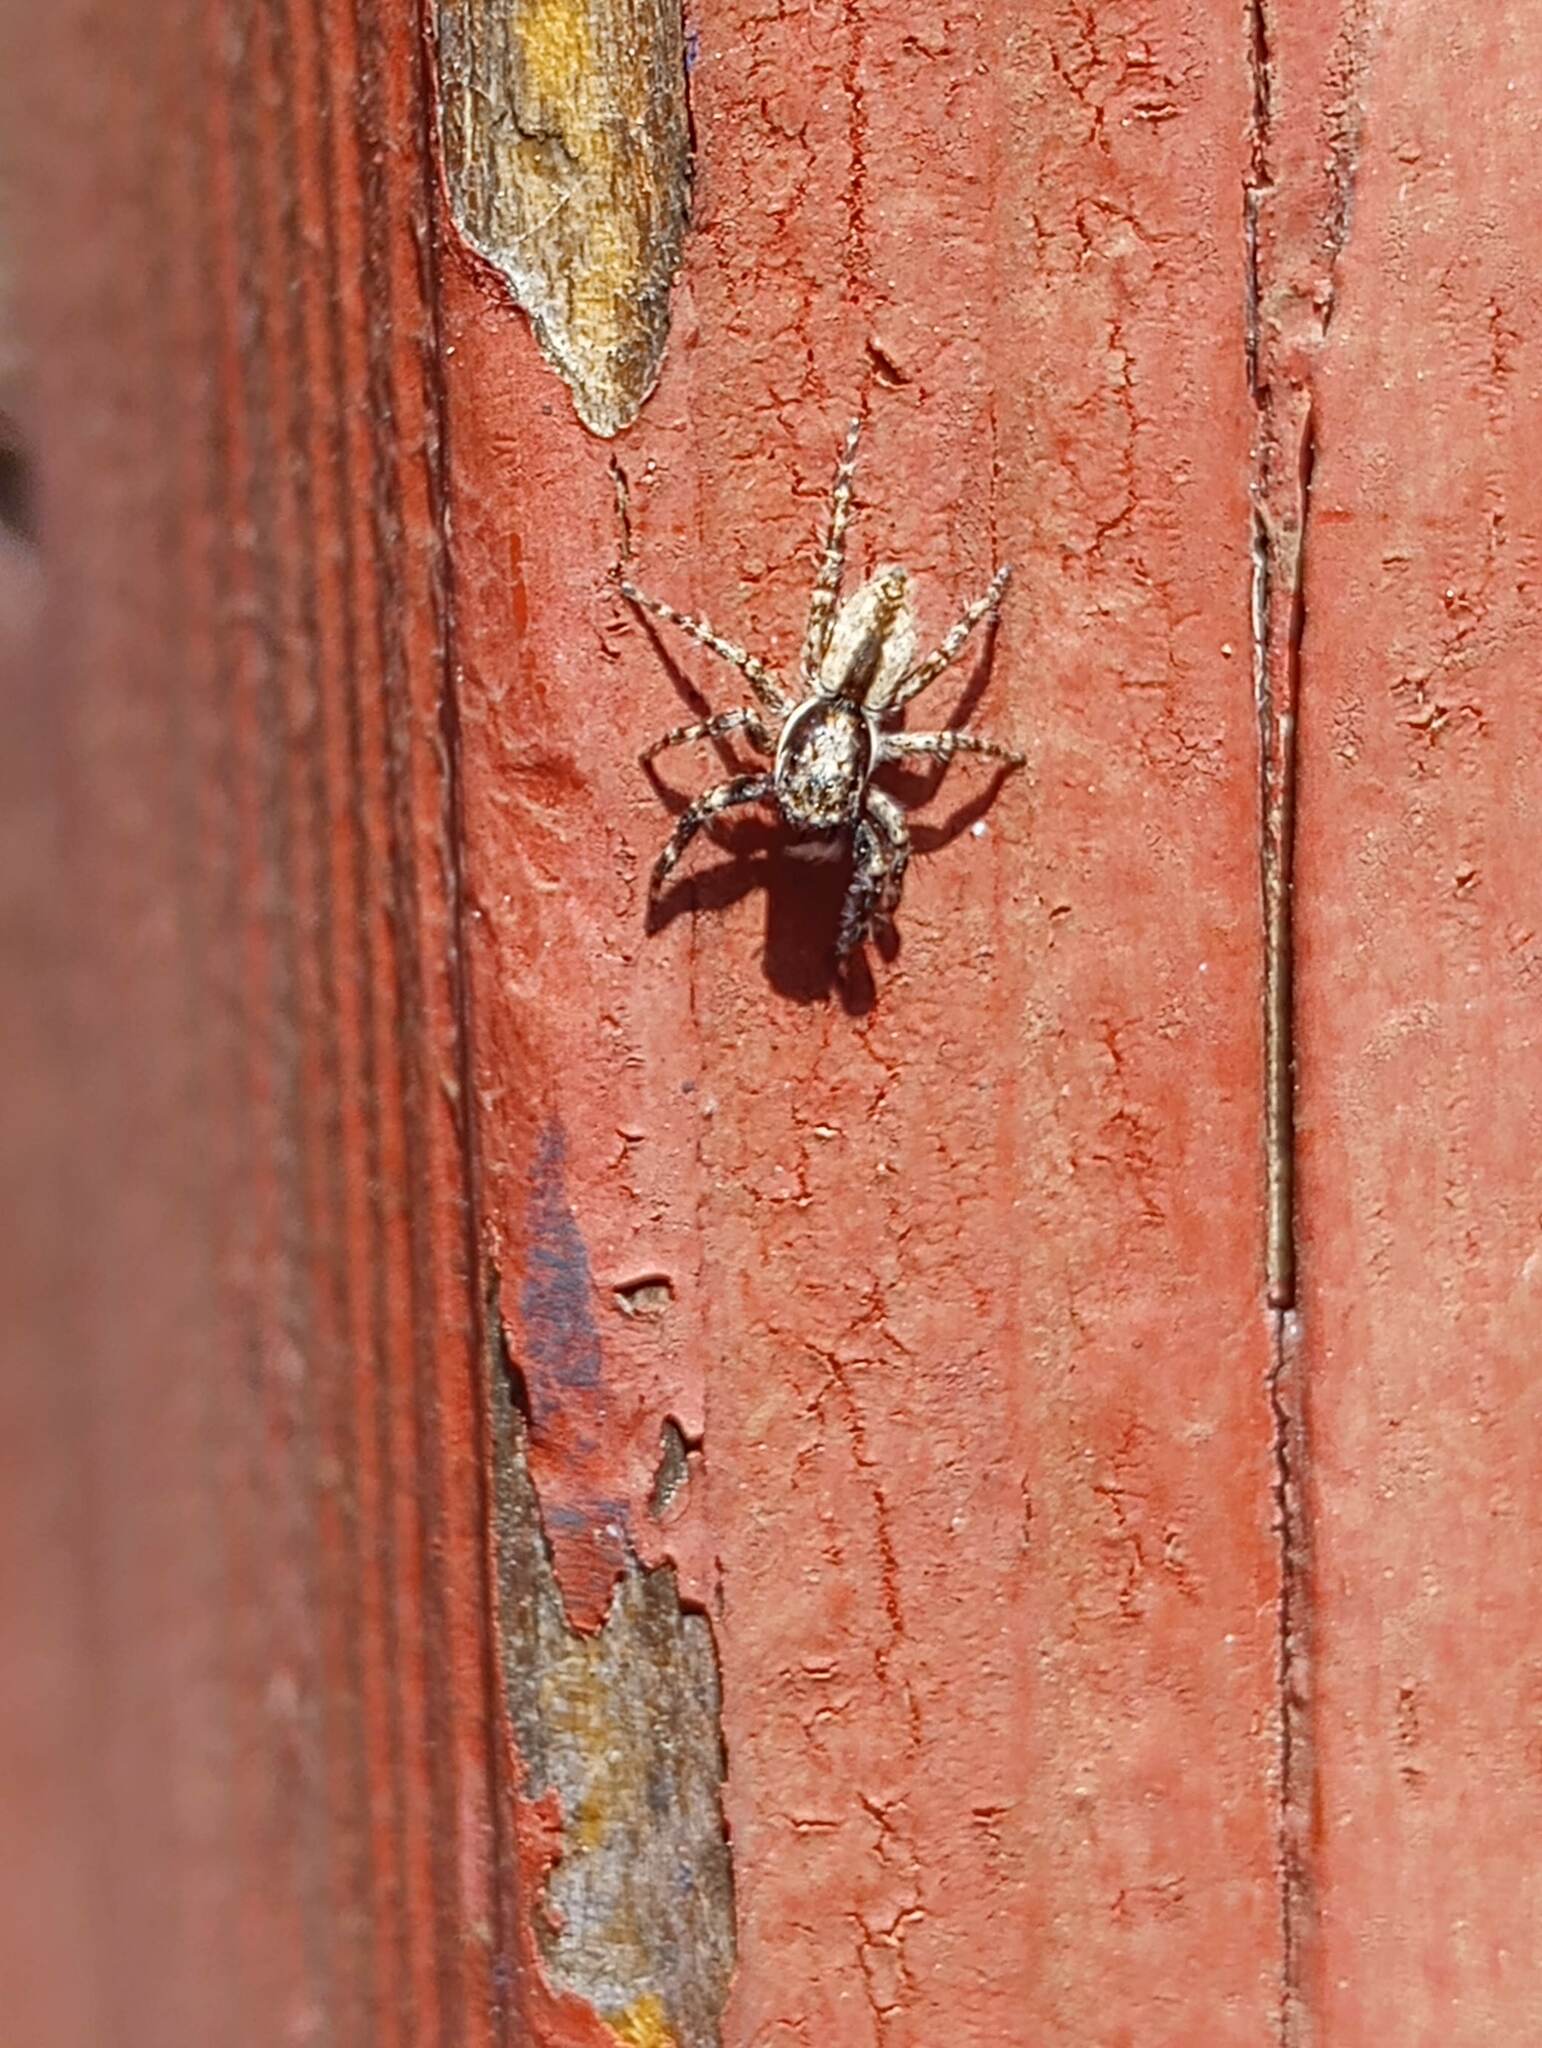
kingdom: Animalia
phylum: Arthropoda
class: Arachnida
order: Araneae
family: Salticidae
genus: Menemerus
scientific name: Menemerus bivittatus
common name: Gray wall jumper
